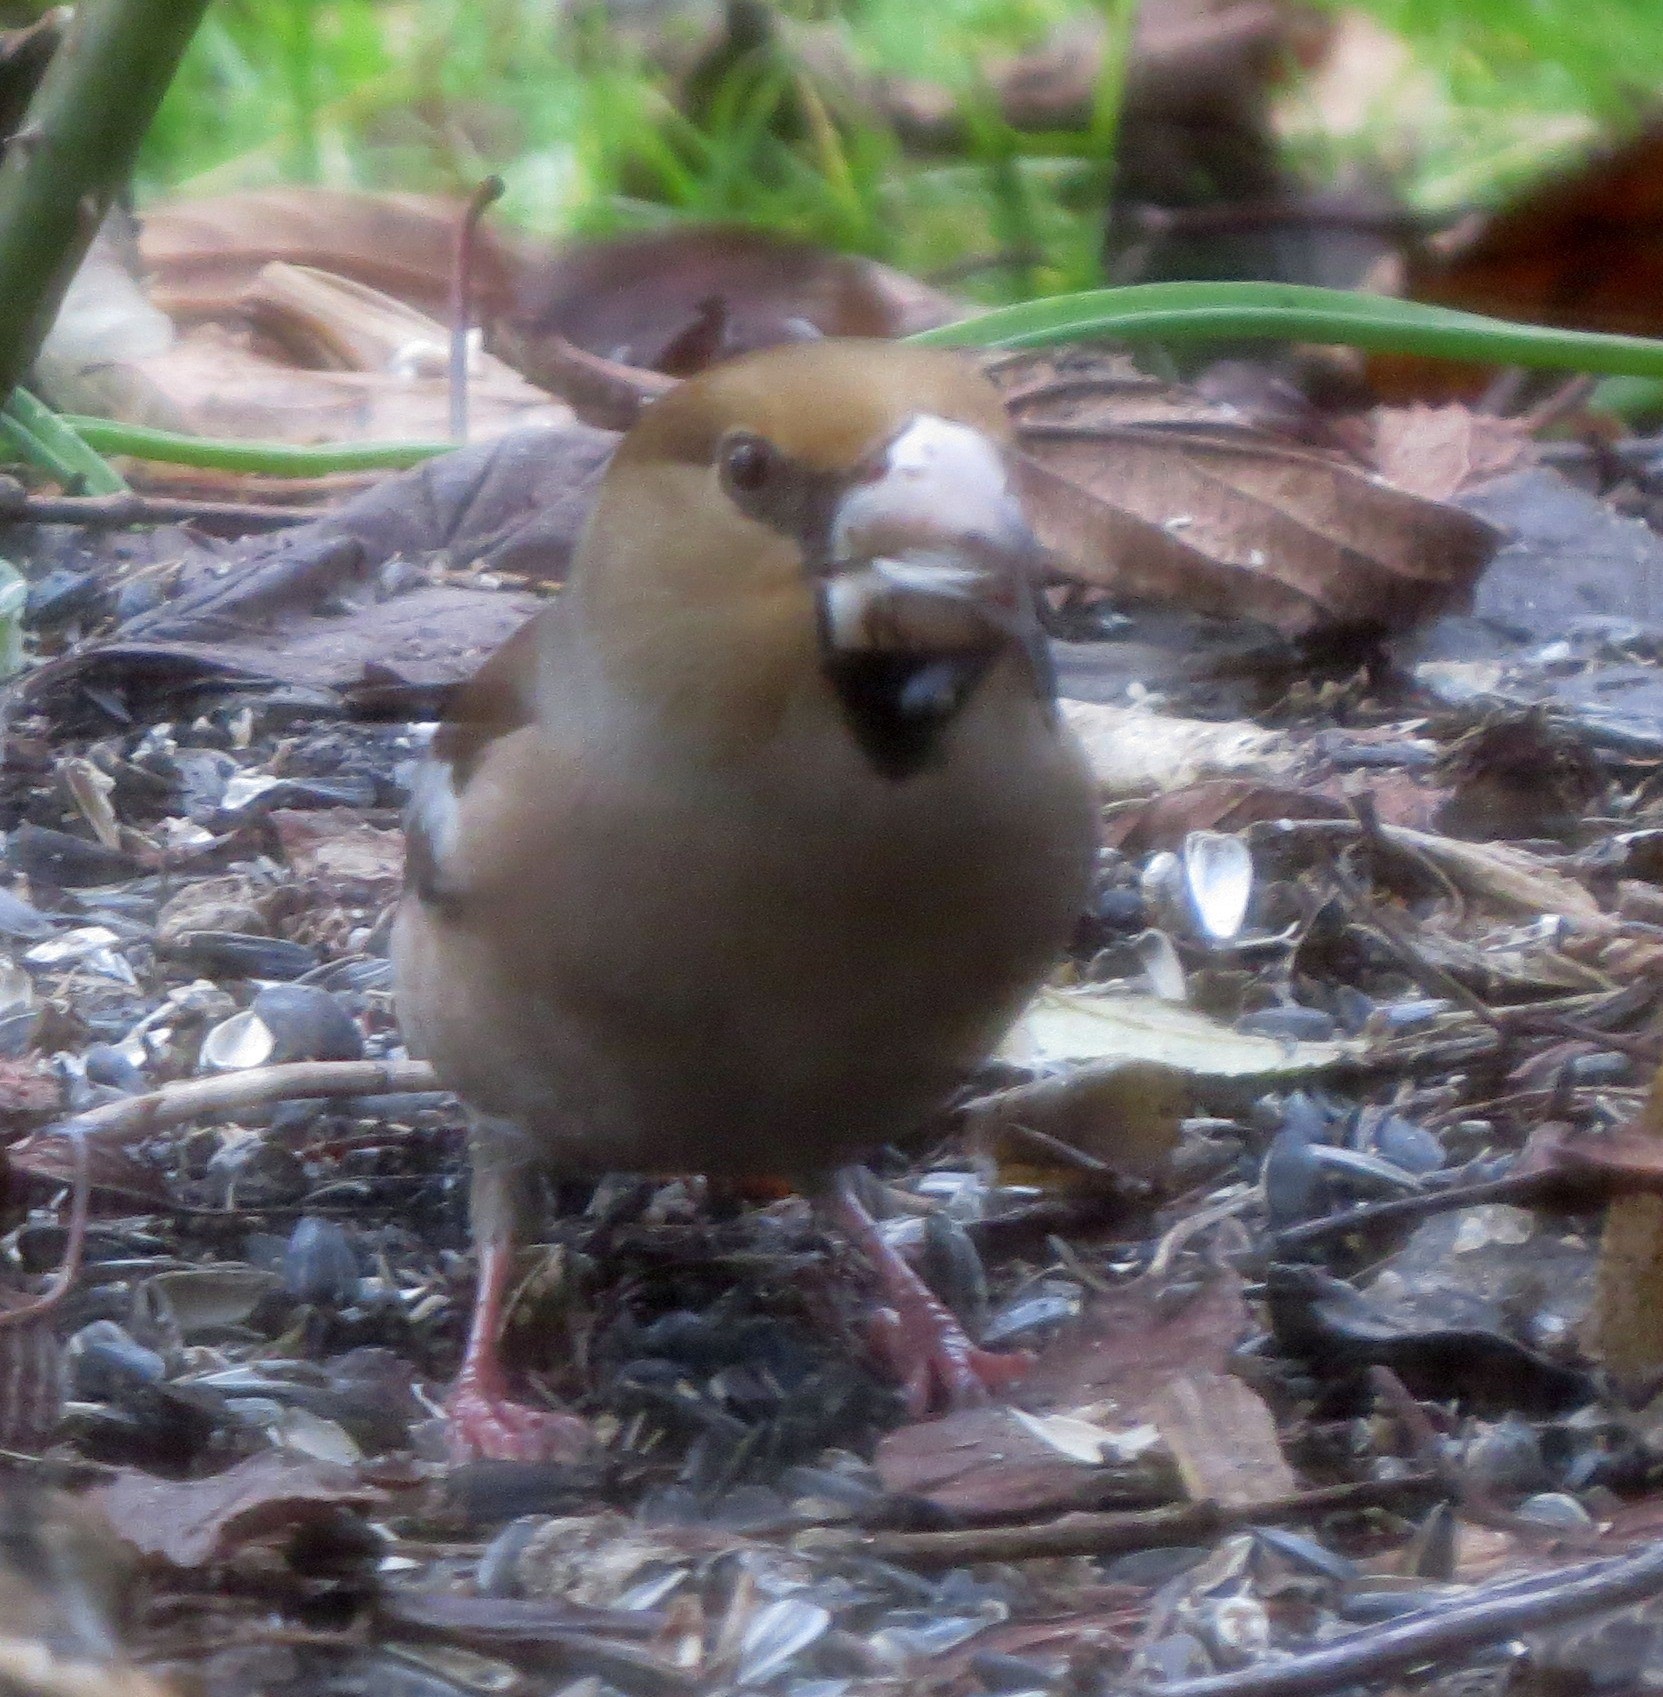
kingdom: Animalia
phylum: Chordata
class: Aves
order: Passeriformes
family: Fringillidae
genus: Coccothraustes
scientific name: Coccothraustes coccothraustes
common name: Hawfinch
